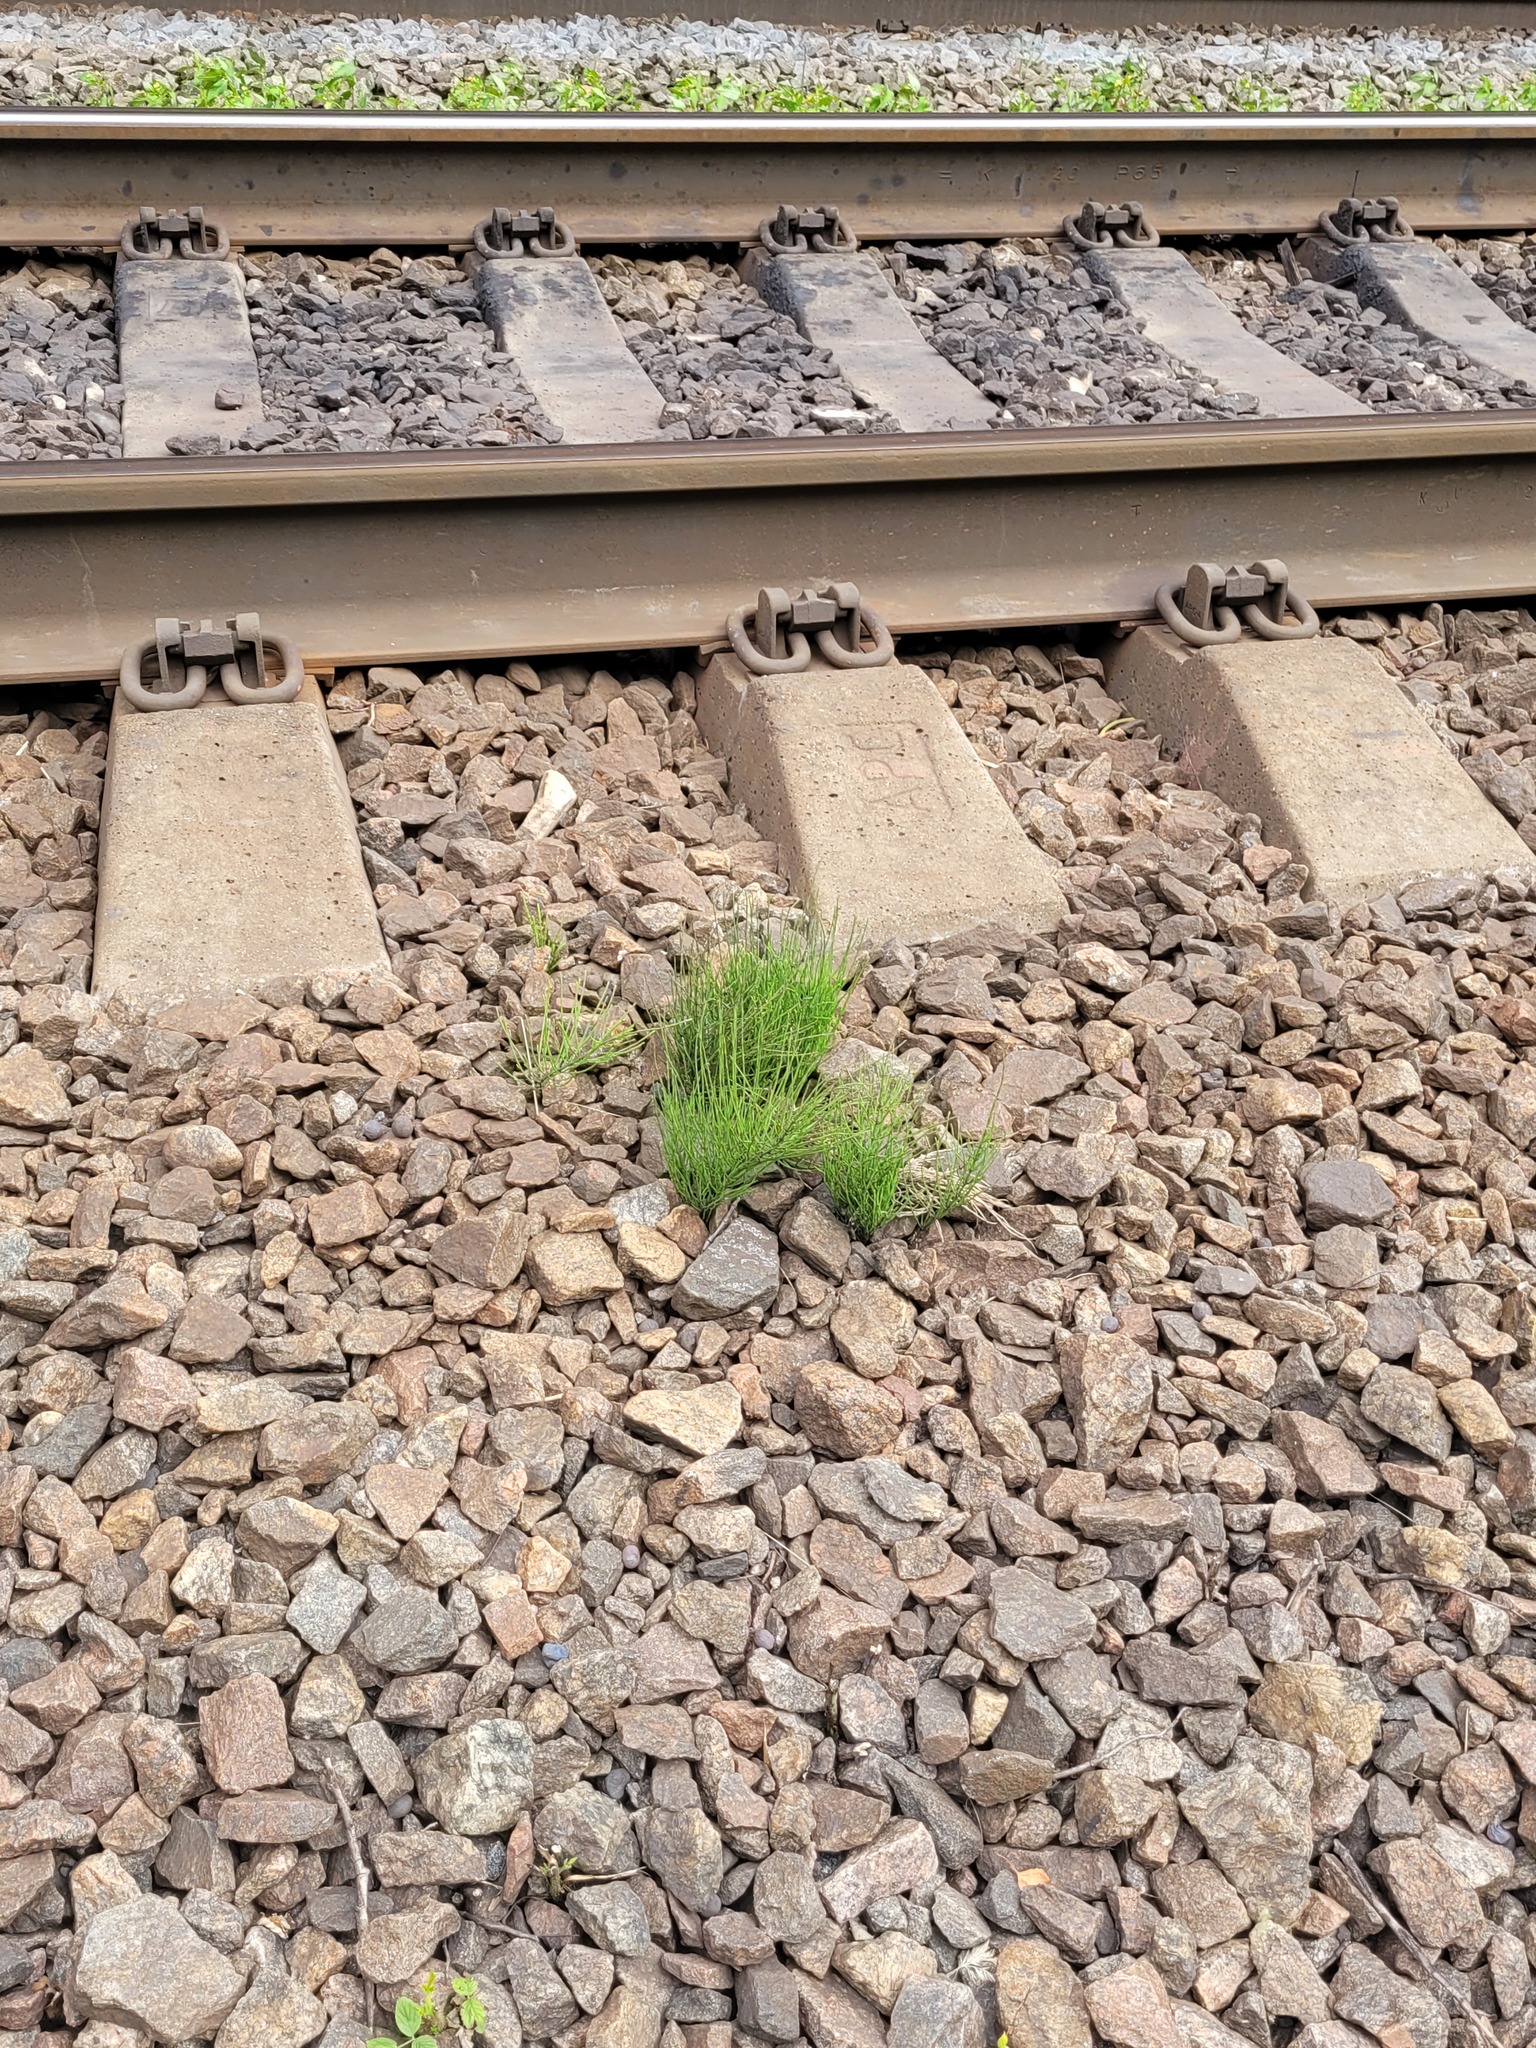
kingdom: Plantae
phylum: Tracheophyta
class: Polypodiopsida
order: Equisetales
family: Equisetaceae
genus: Equisetum
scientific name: Equisetum arvense
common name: Field horsetail
